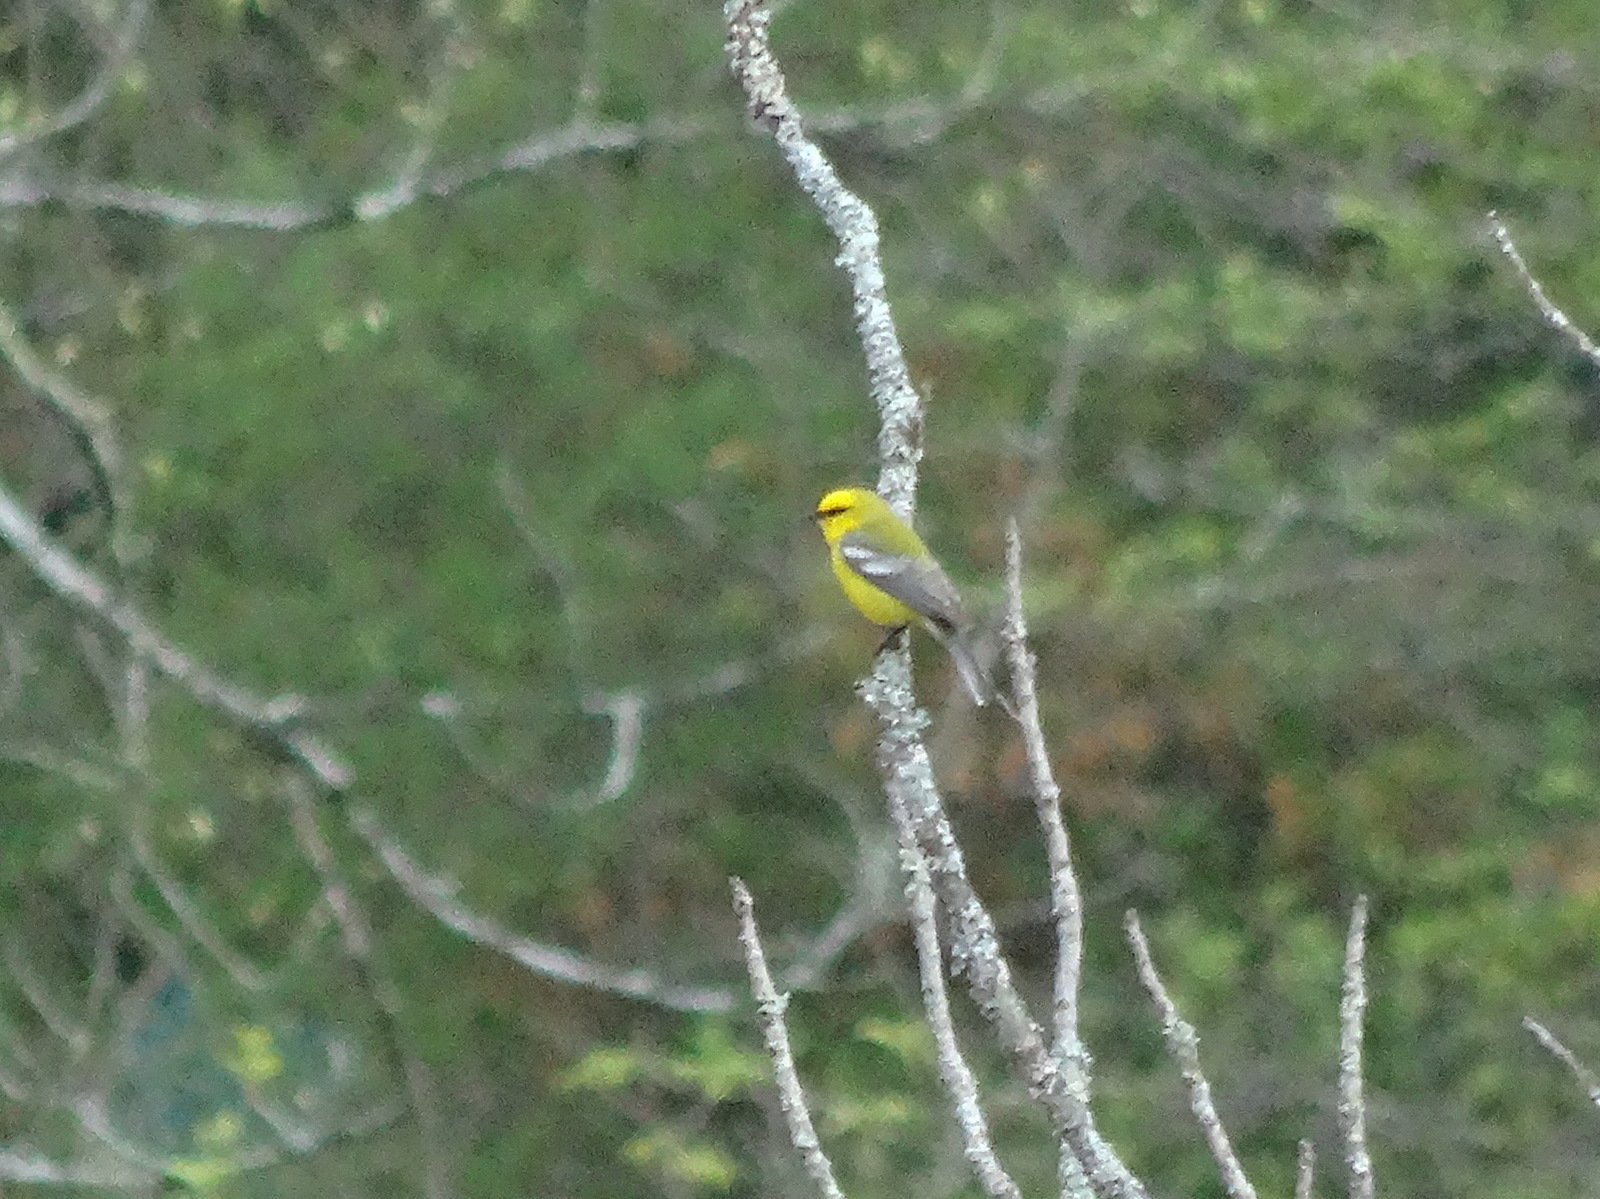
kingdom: Animalia
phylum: Chordata
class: Aves
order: Passeriformes
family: Parulidae
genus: Vermivora
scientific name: Vermivora cyanoptera
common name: Blue-winged warbler
